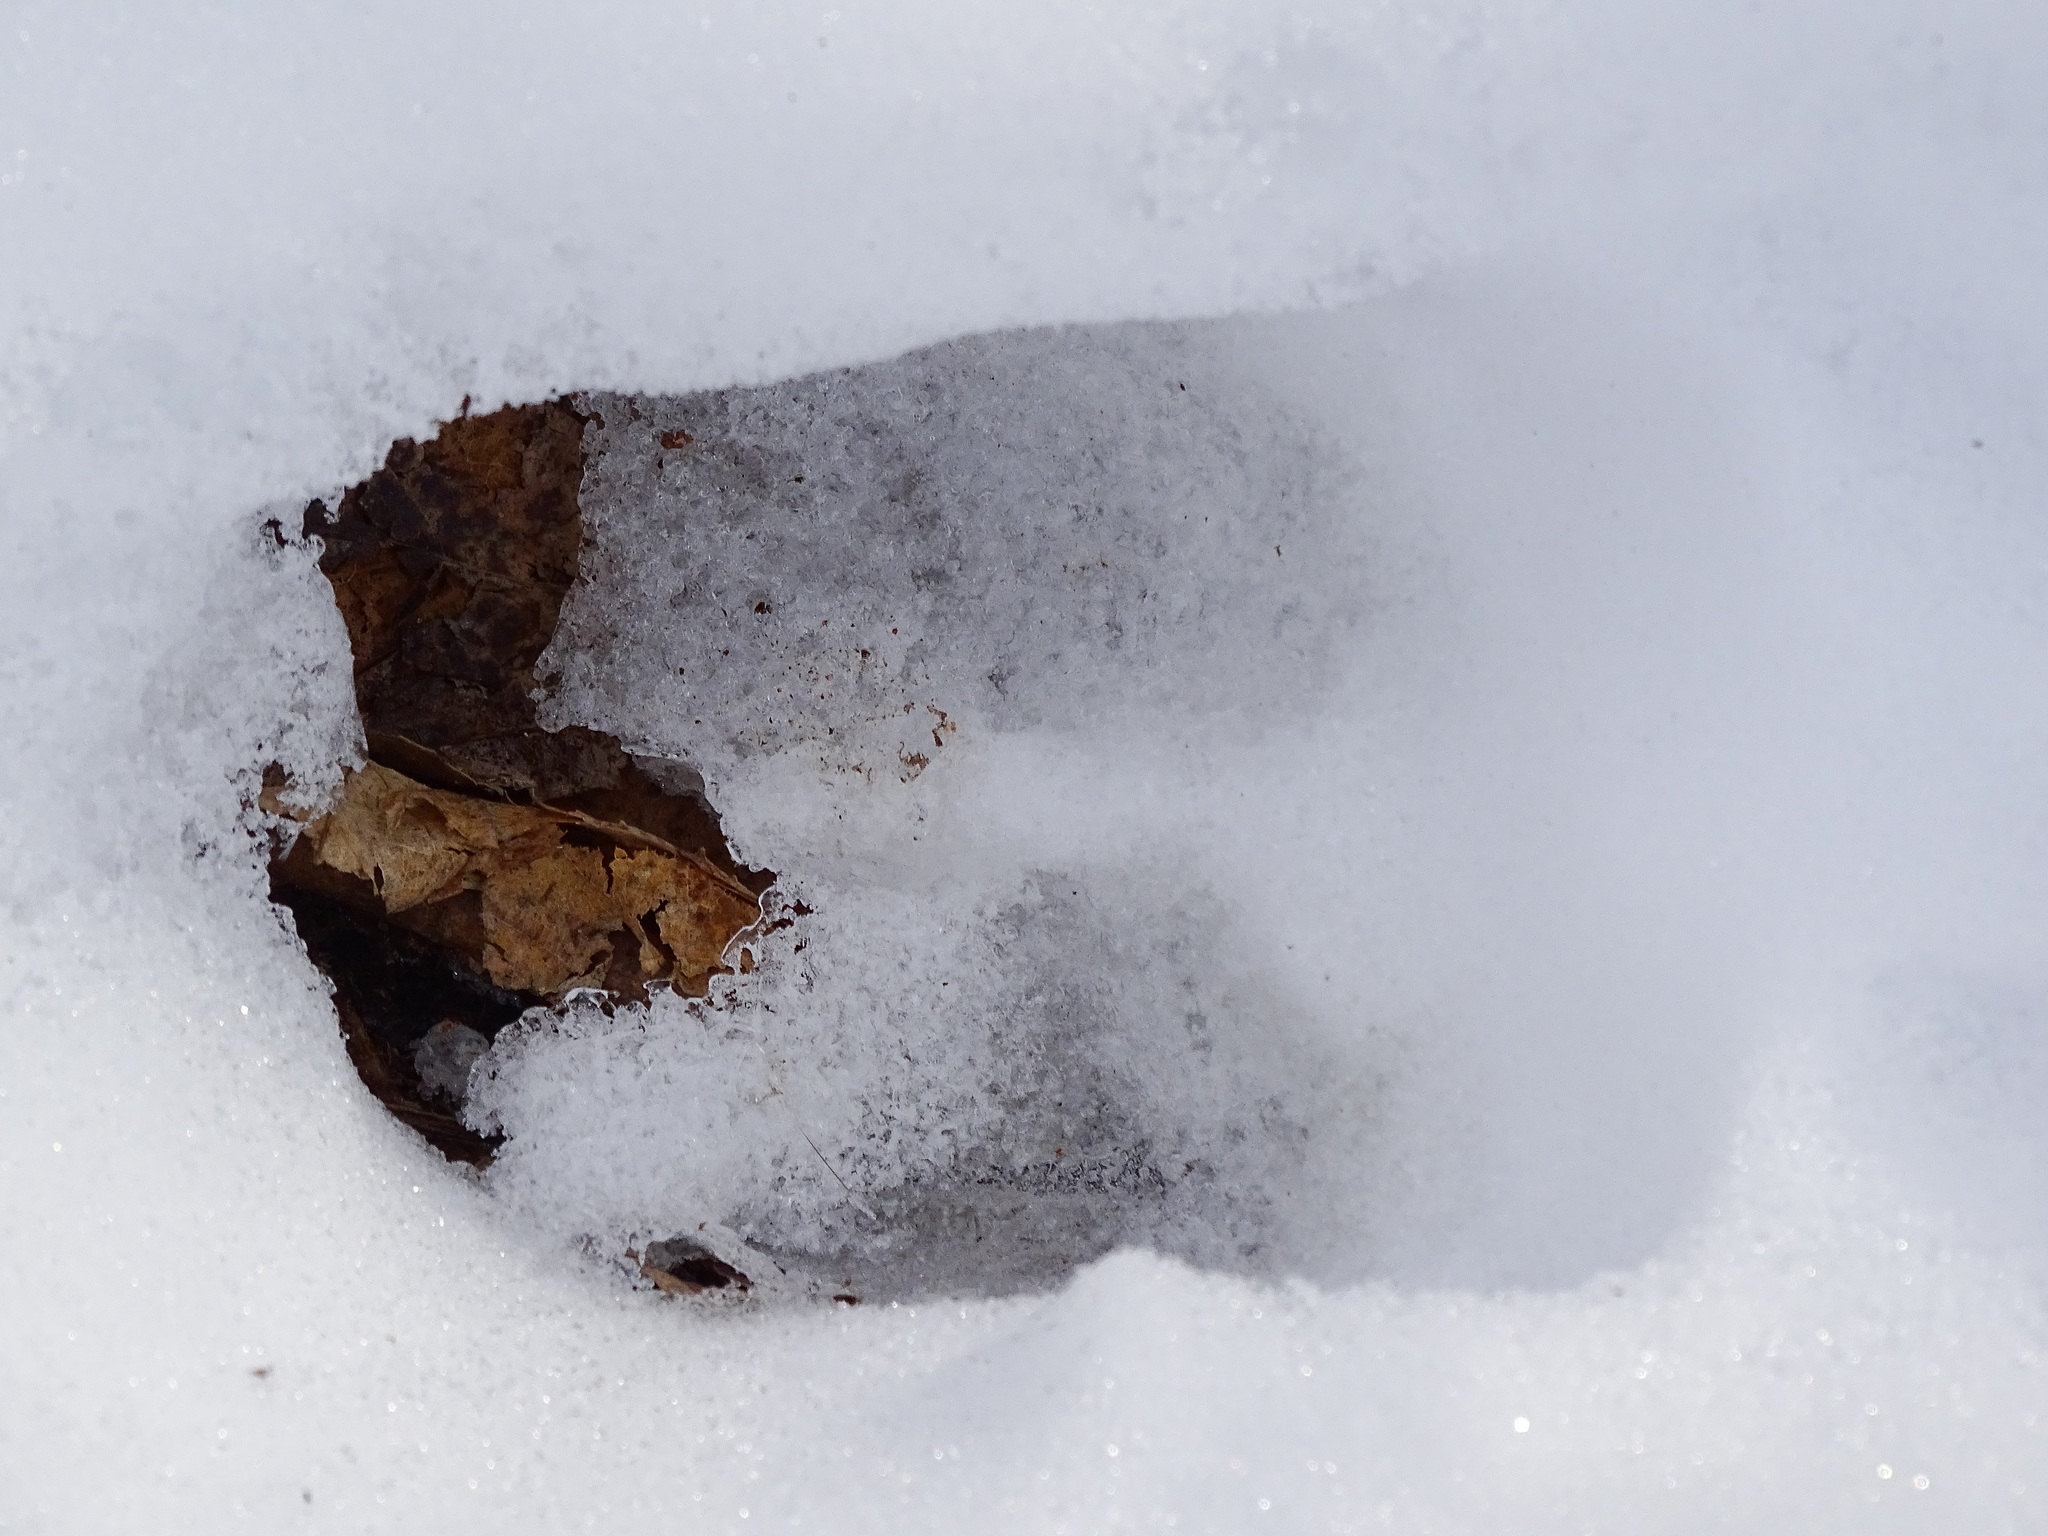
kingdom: Animalia
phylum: Chordata
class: Mammalia
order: Artiodactyla
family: Cervidae
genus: Odocoileus
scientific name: Odocoileus virginianus
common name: White-tailed deer
